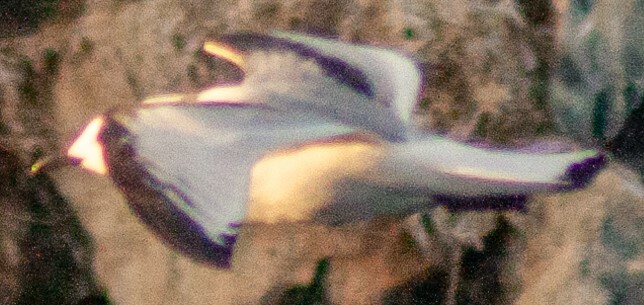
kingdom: Animalia
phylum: Chordata
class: Aves
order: Charadriiformes
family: Laridae
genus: Rissa
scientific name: Rissa tridactyla
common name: Black-legged kittiwake
